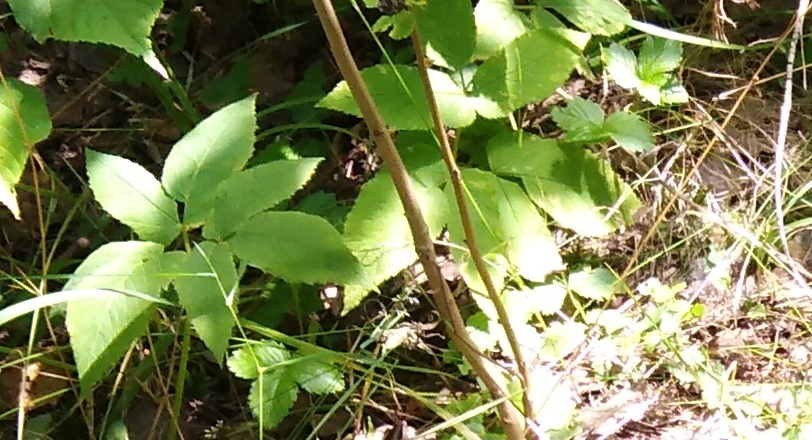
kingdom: Plantae
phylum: Tracheophyta
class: Magnoliopsida
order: Apiales
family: Apiaceae
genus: Aegopodium
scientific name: Aegopodium podagraria
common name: Ground-elder
